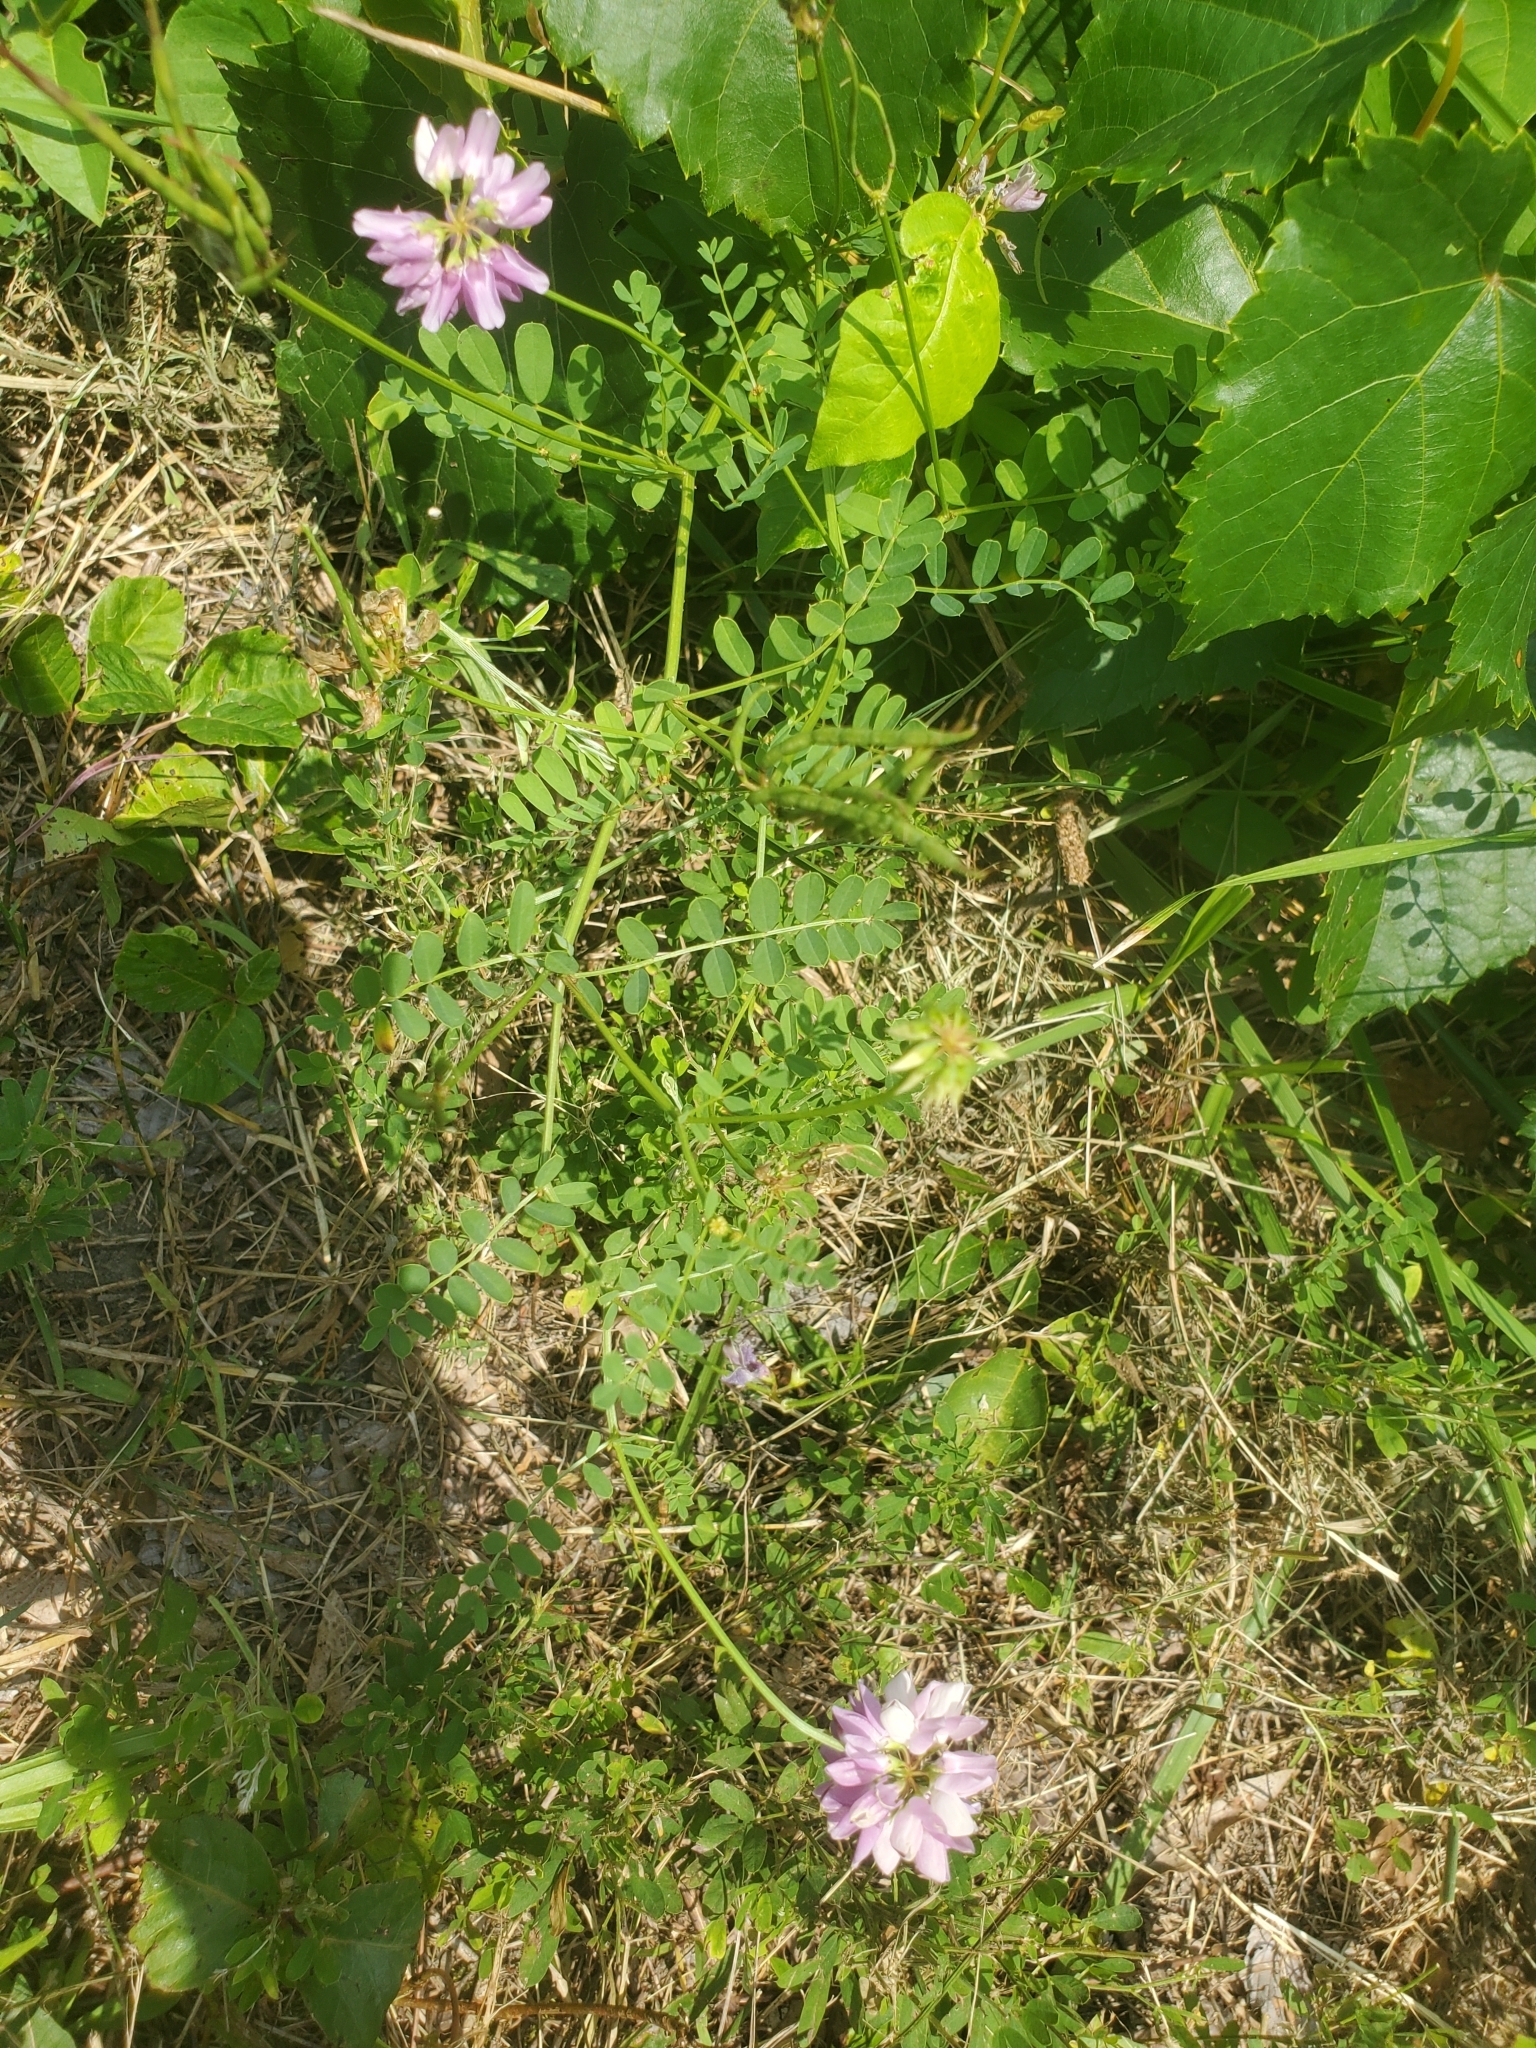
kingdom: Plantae
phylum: Tracheophyta
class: Magnoliopsida
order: Fabales
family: Fabaceae
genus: Coronilla
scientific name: Coronilla varia
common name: Crownvetch
